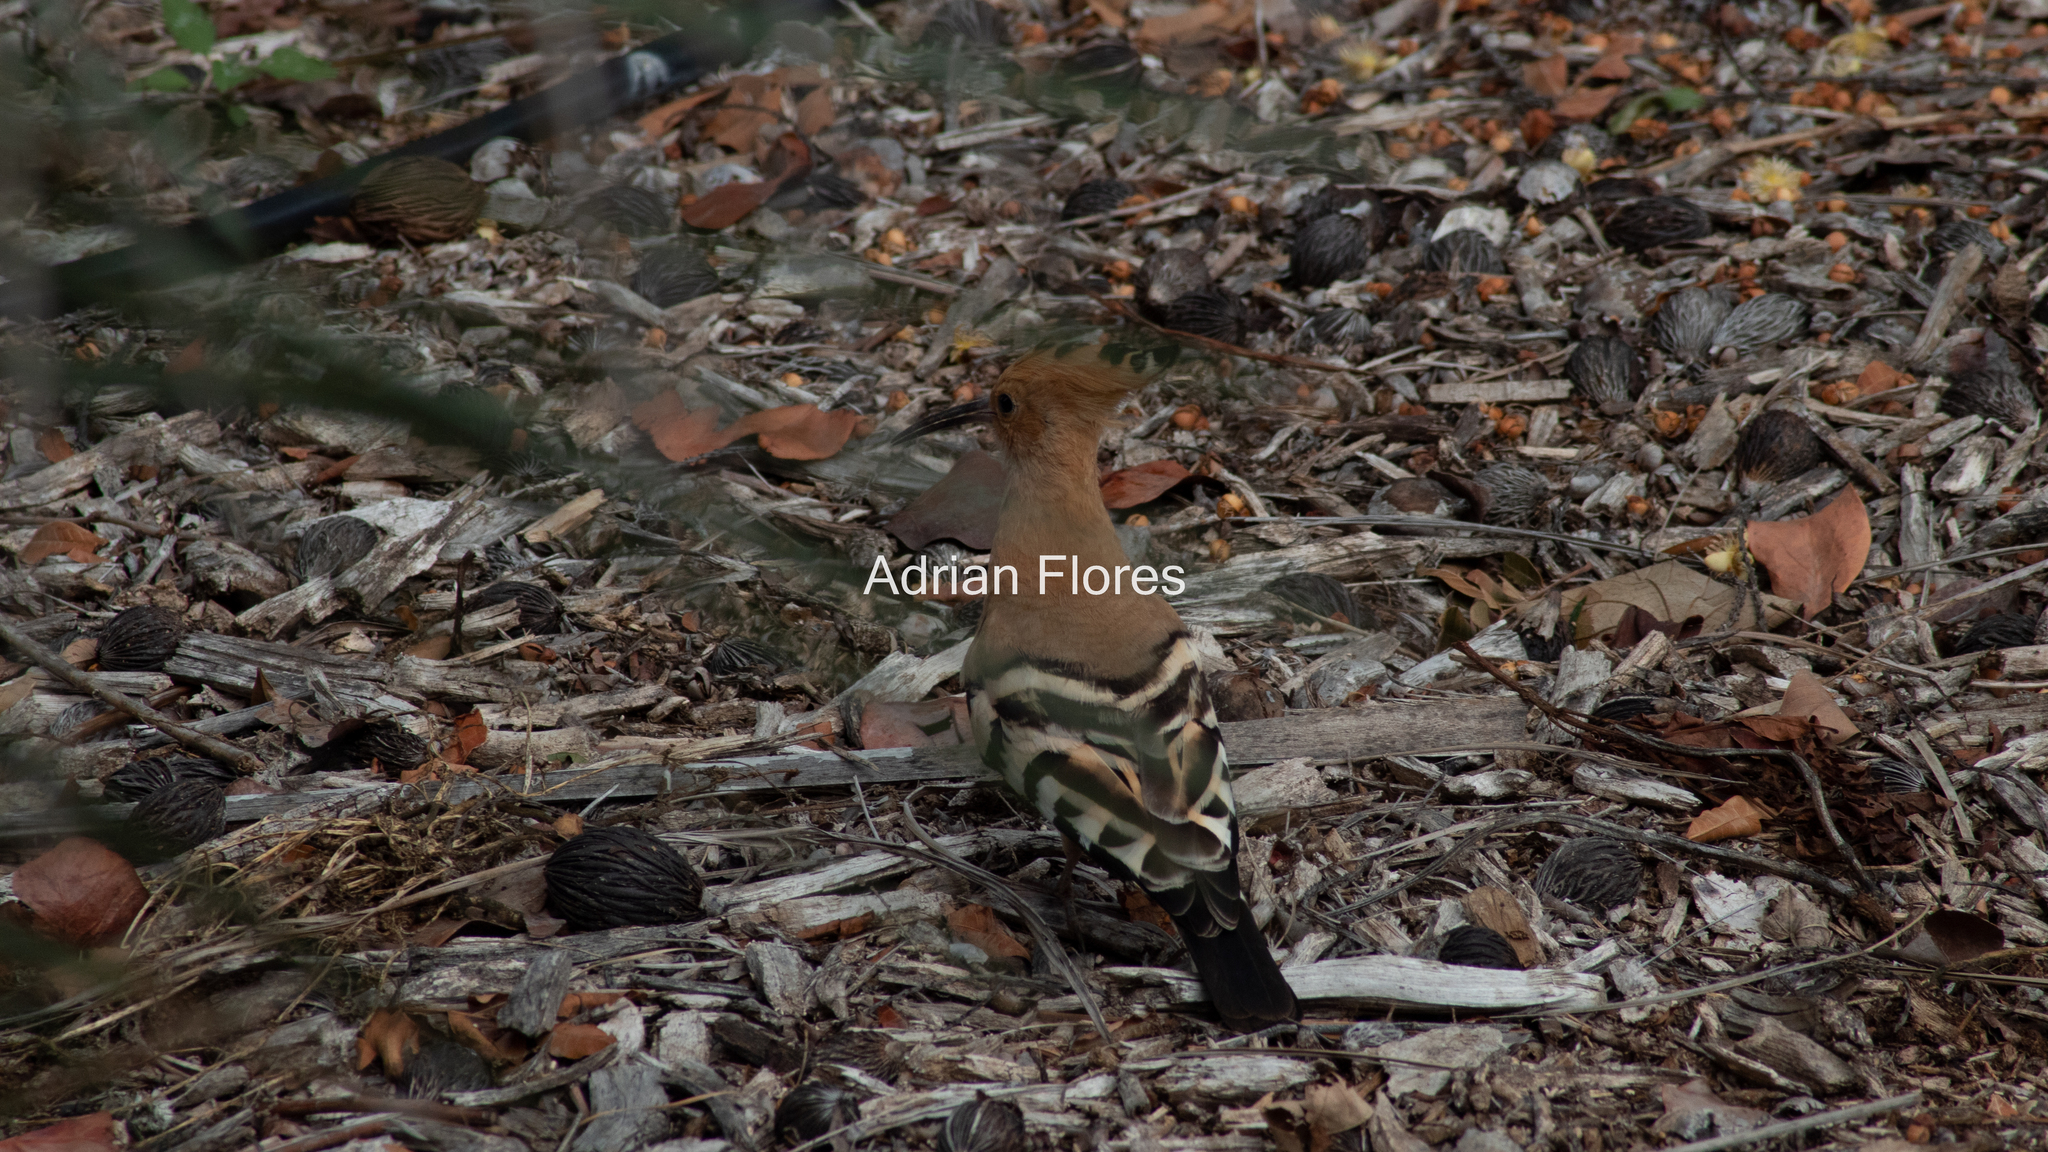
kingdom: Animalia
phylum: Chordata
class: Aves
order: Bucerotiformes
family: Upupidae
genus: Upupa
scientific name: Upupa epops
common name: Eurasian hoopoe
